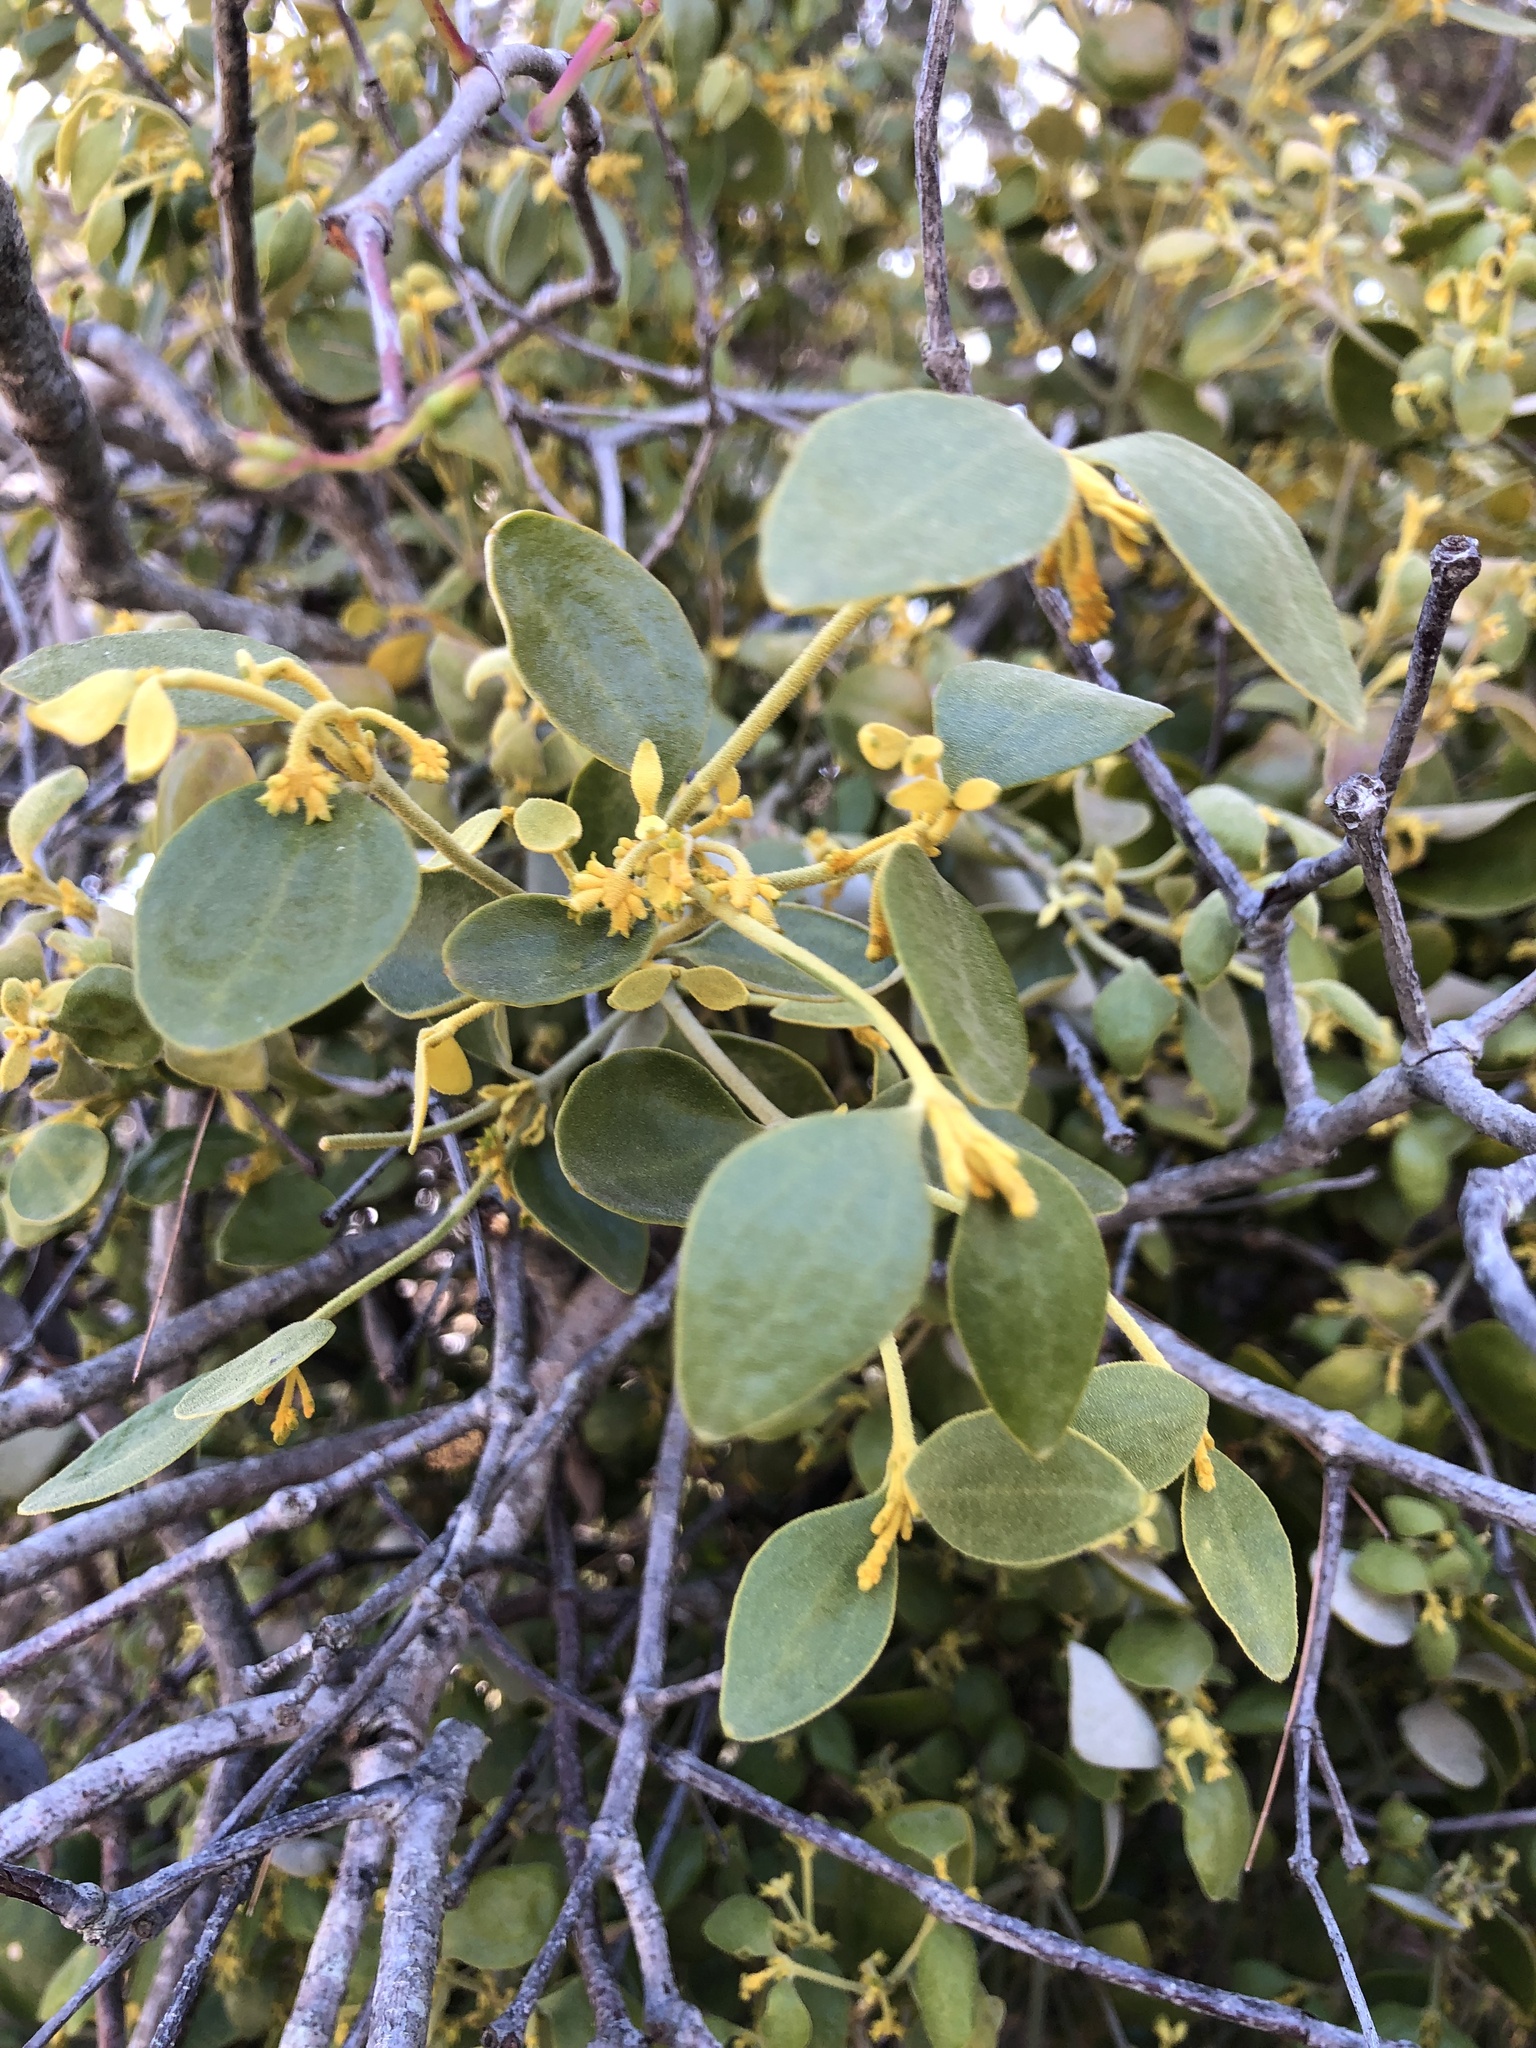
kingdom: Plantae
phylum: Tracheophyta
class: Magnoliopsida
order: Santalales
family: Viscaceae
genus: Notothixos
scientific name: Notothixos subaureus
